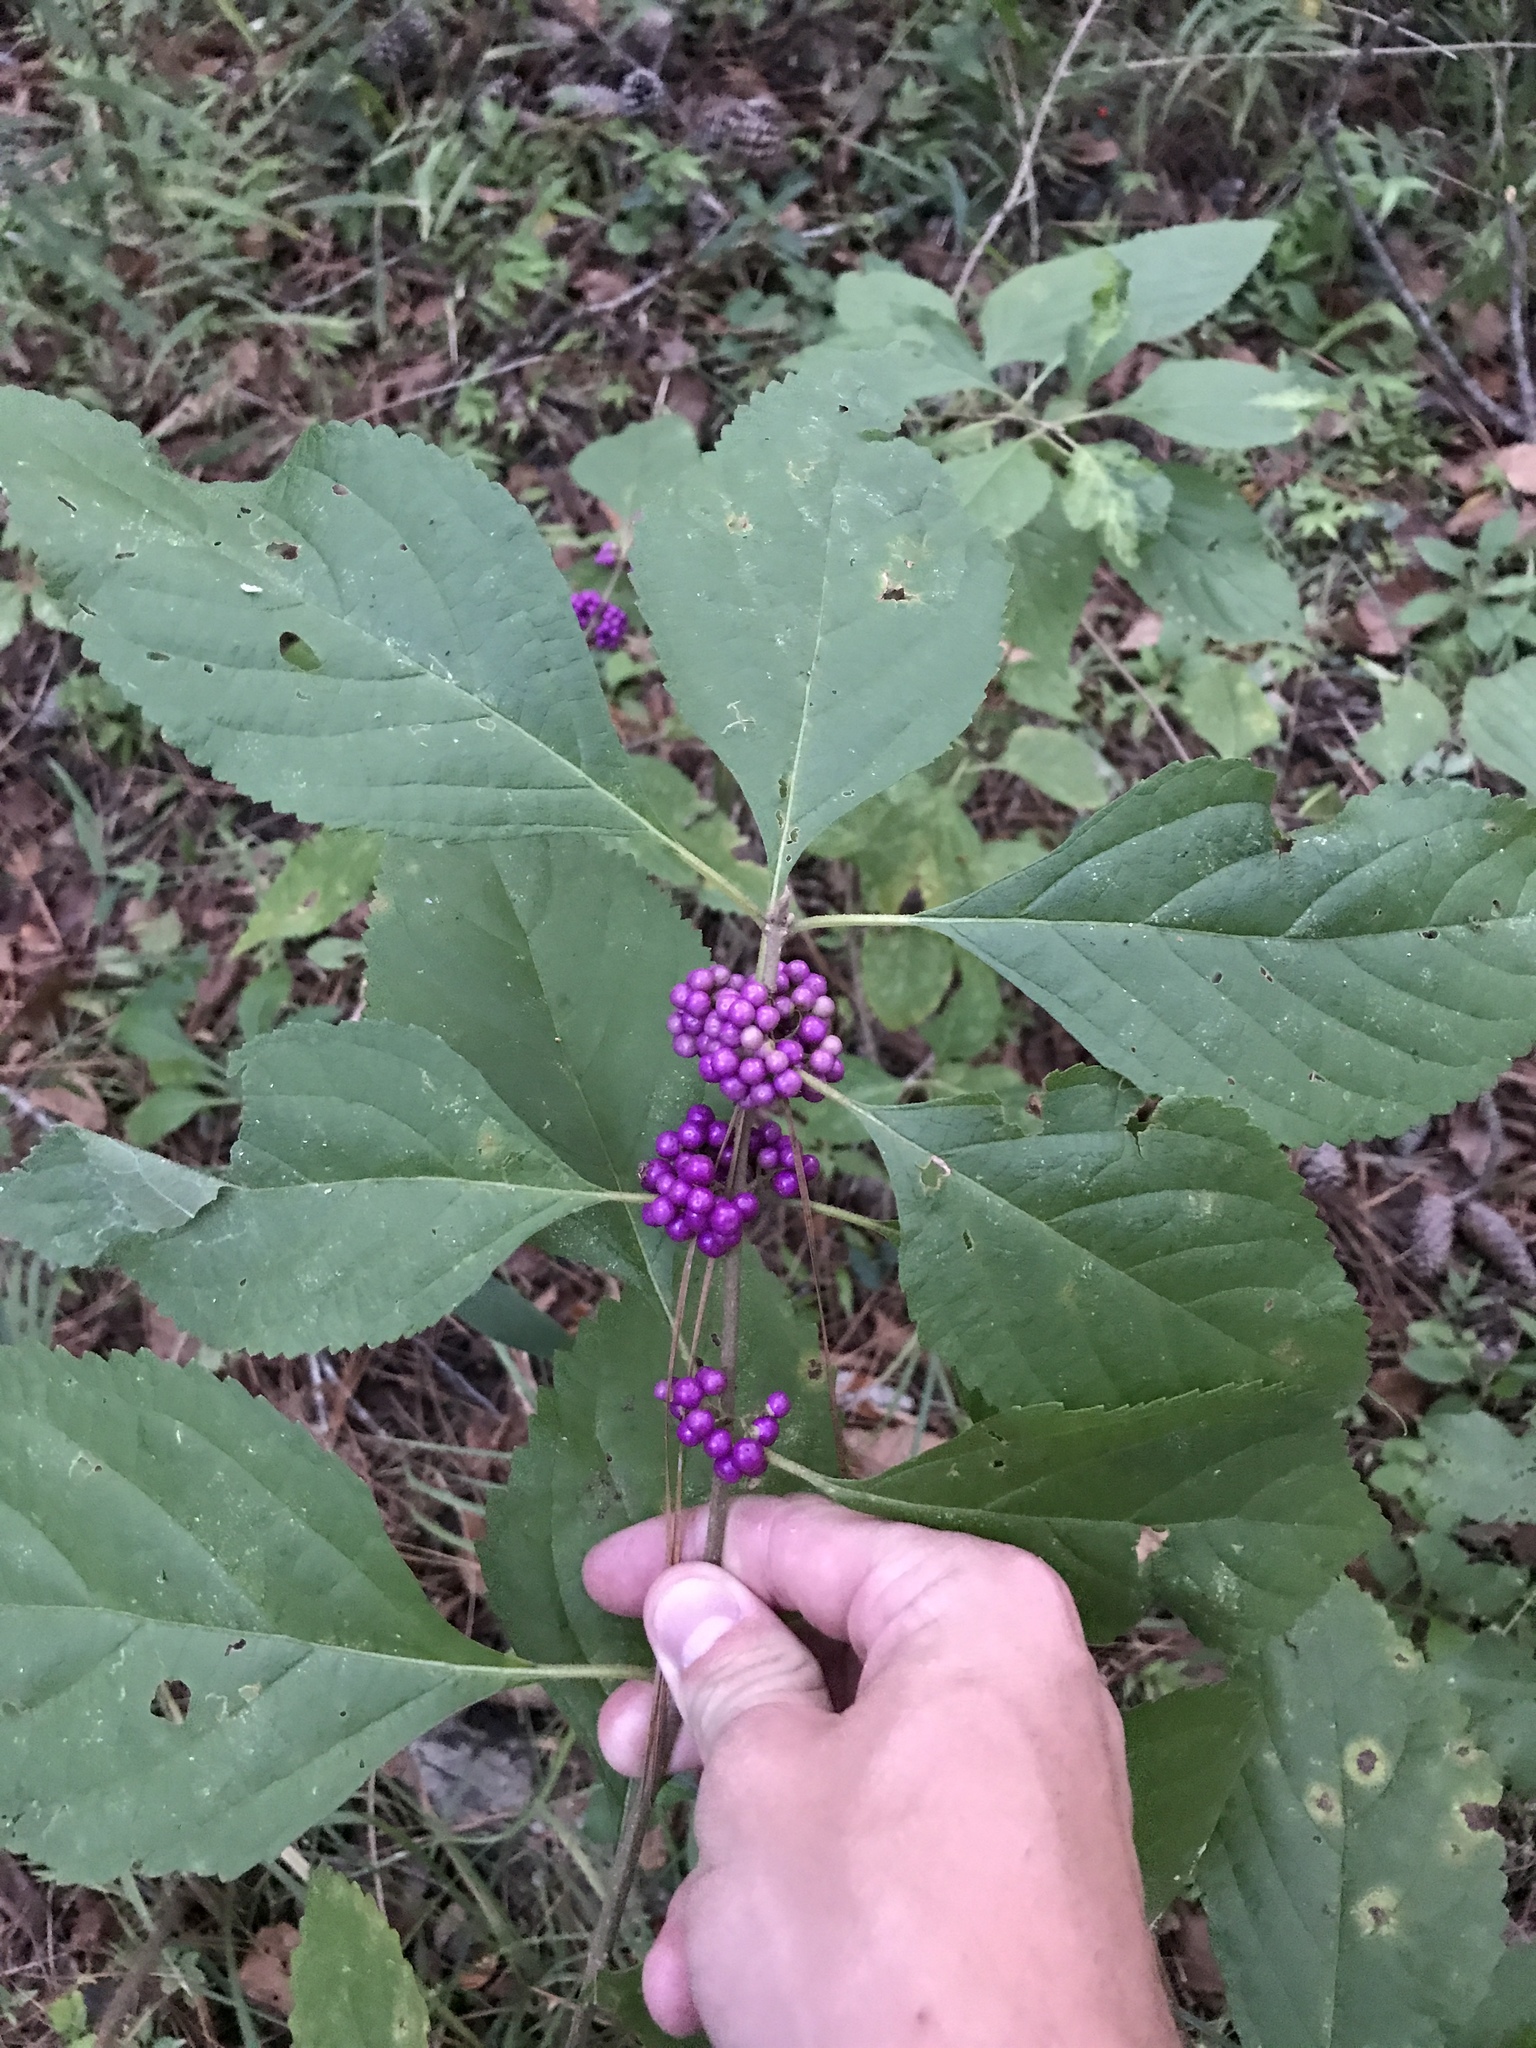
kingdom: Plantae
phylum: Tracheophyta
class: Magnoliopsida
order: Lamiales
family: Lamiaceae
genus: Callicarpa
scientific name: Callicarpa americana
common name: American beautyberry
